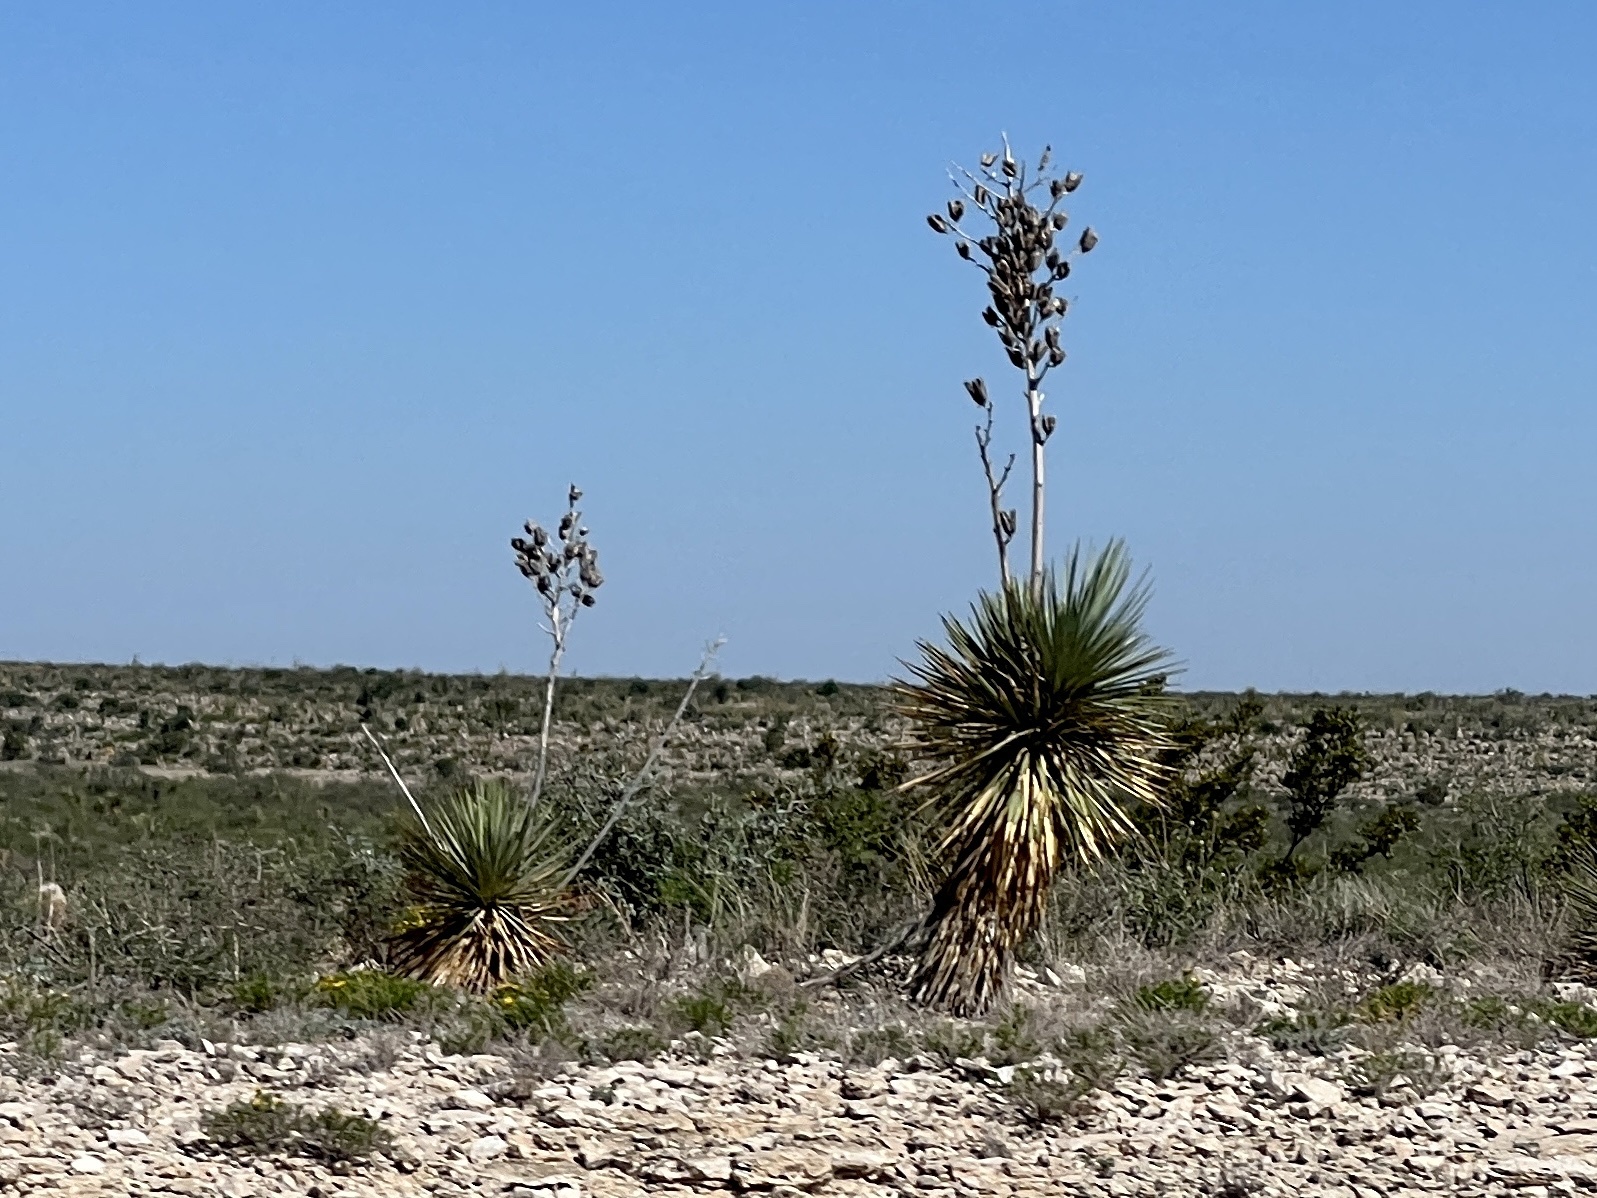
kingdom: Plantae
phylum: Tracheophyta
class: Liliopsida
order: Asparagales
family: Asparagaceae
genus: Yucca
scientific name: Yucca thompsoniana
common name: Trans-pecos yucca
